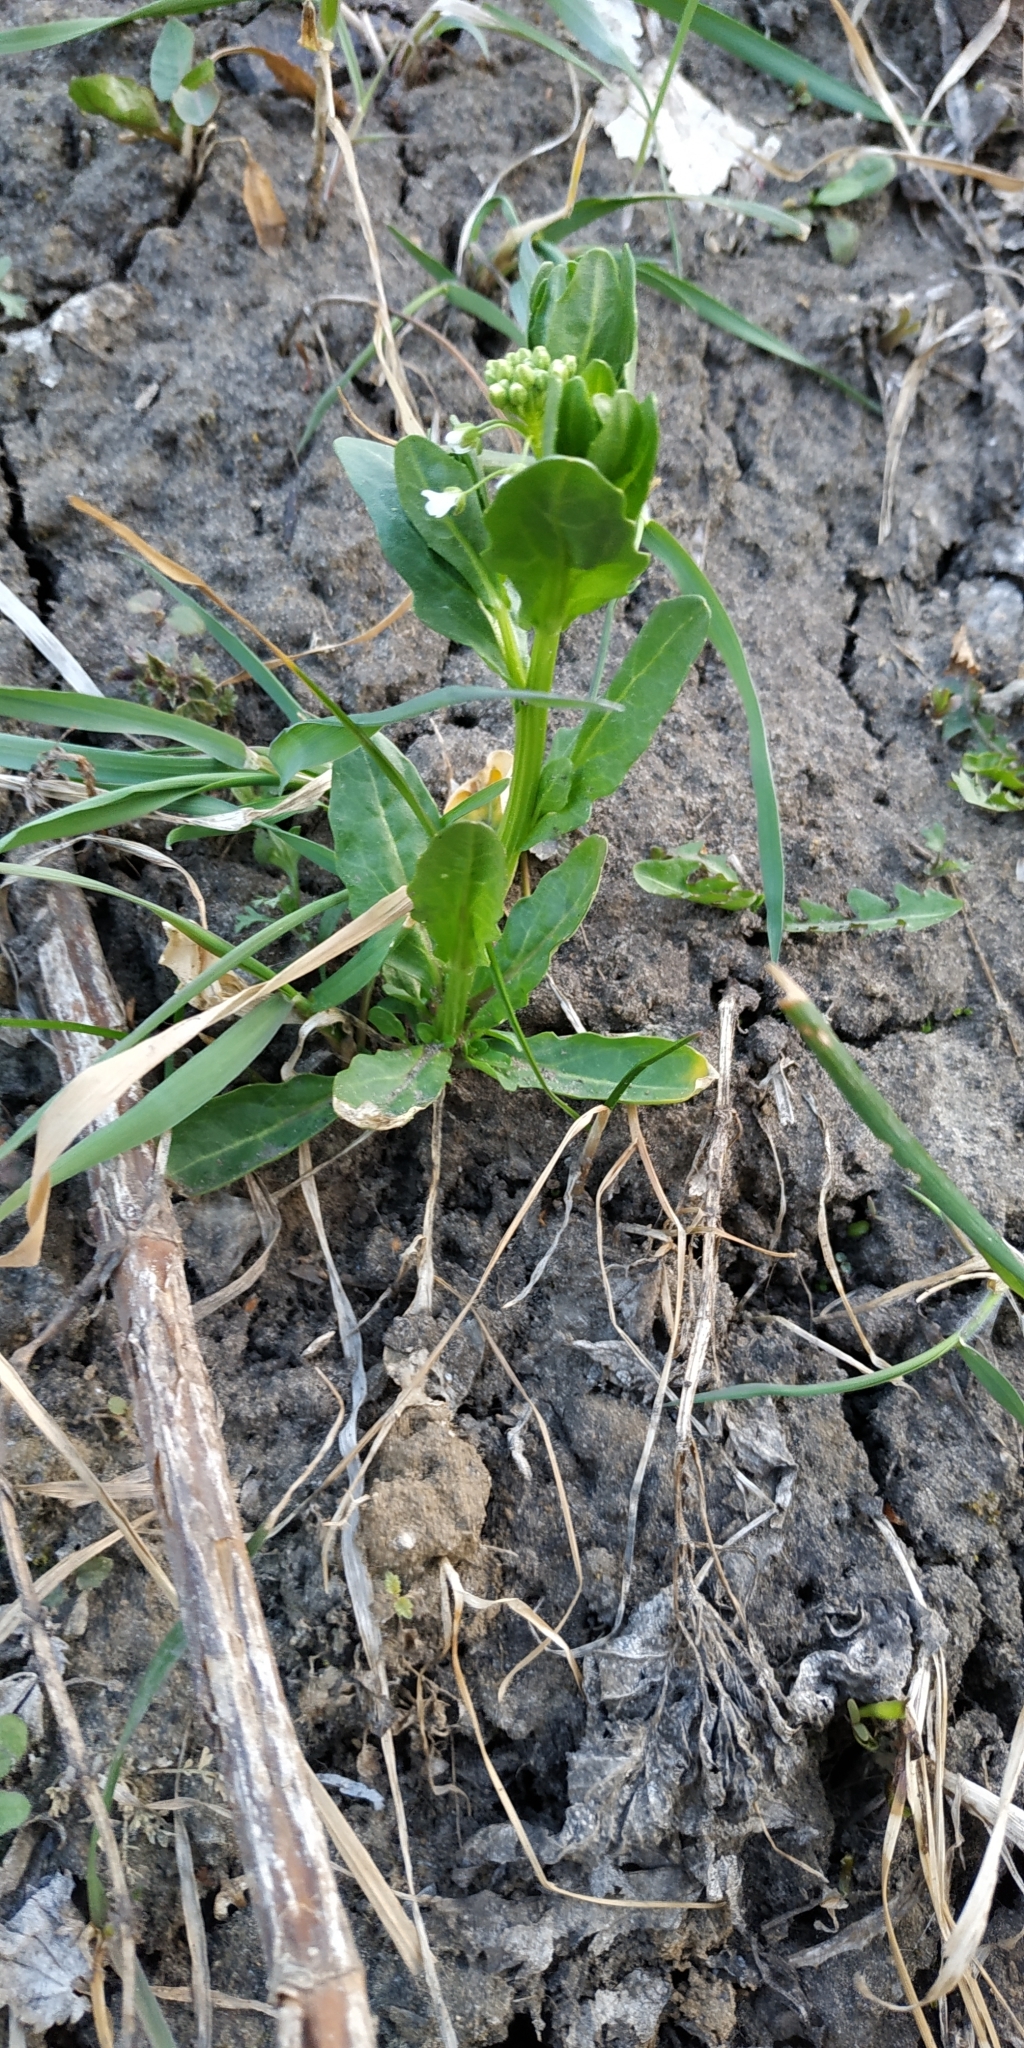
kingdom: Plantae
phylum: Tracheophyta
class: Magnoliopsida
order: Brassicales
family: Brassicaceae
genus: Thlaspi
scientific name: Thlaspi arvense
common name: Field pennycress
